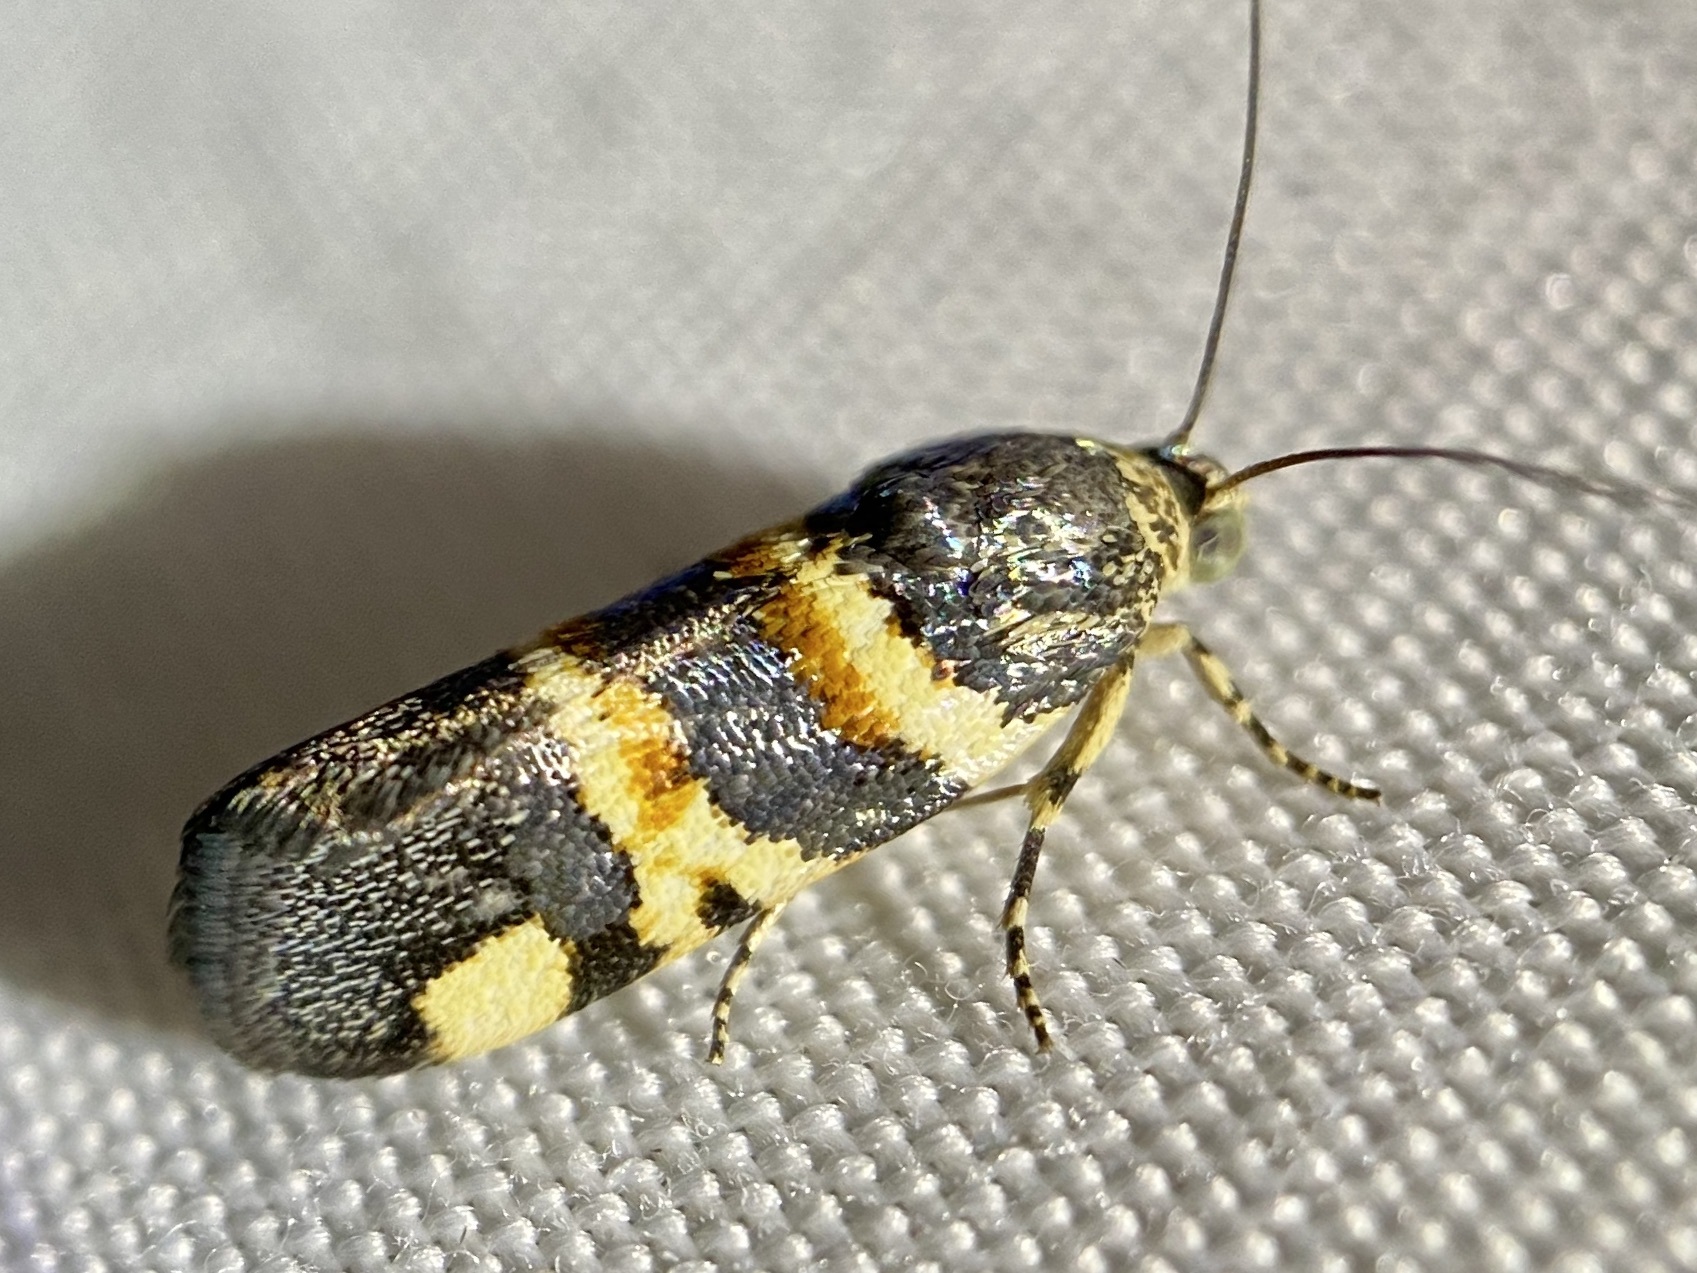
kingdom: Animalia
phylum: Arthropoda
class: Insecta
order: Lepidoptera
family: Noctuidae
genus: Spragueia
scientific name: Spragueia funeralis
